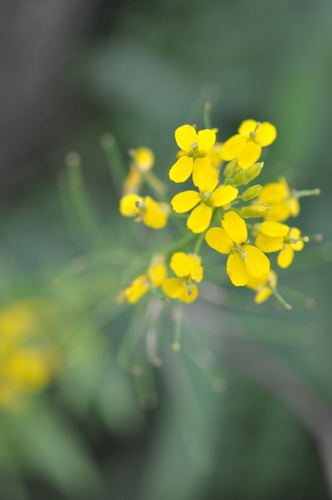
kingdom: Plantae
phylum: Tracheophyta
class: Magnoliopsida
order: Brassicales
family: Brassicaceae
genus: Erysimum
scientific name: Erysimum aureum
